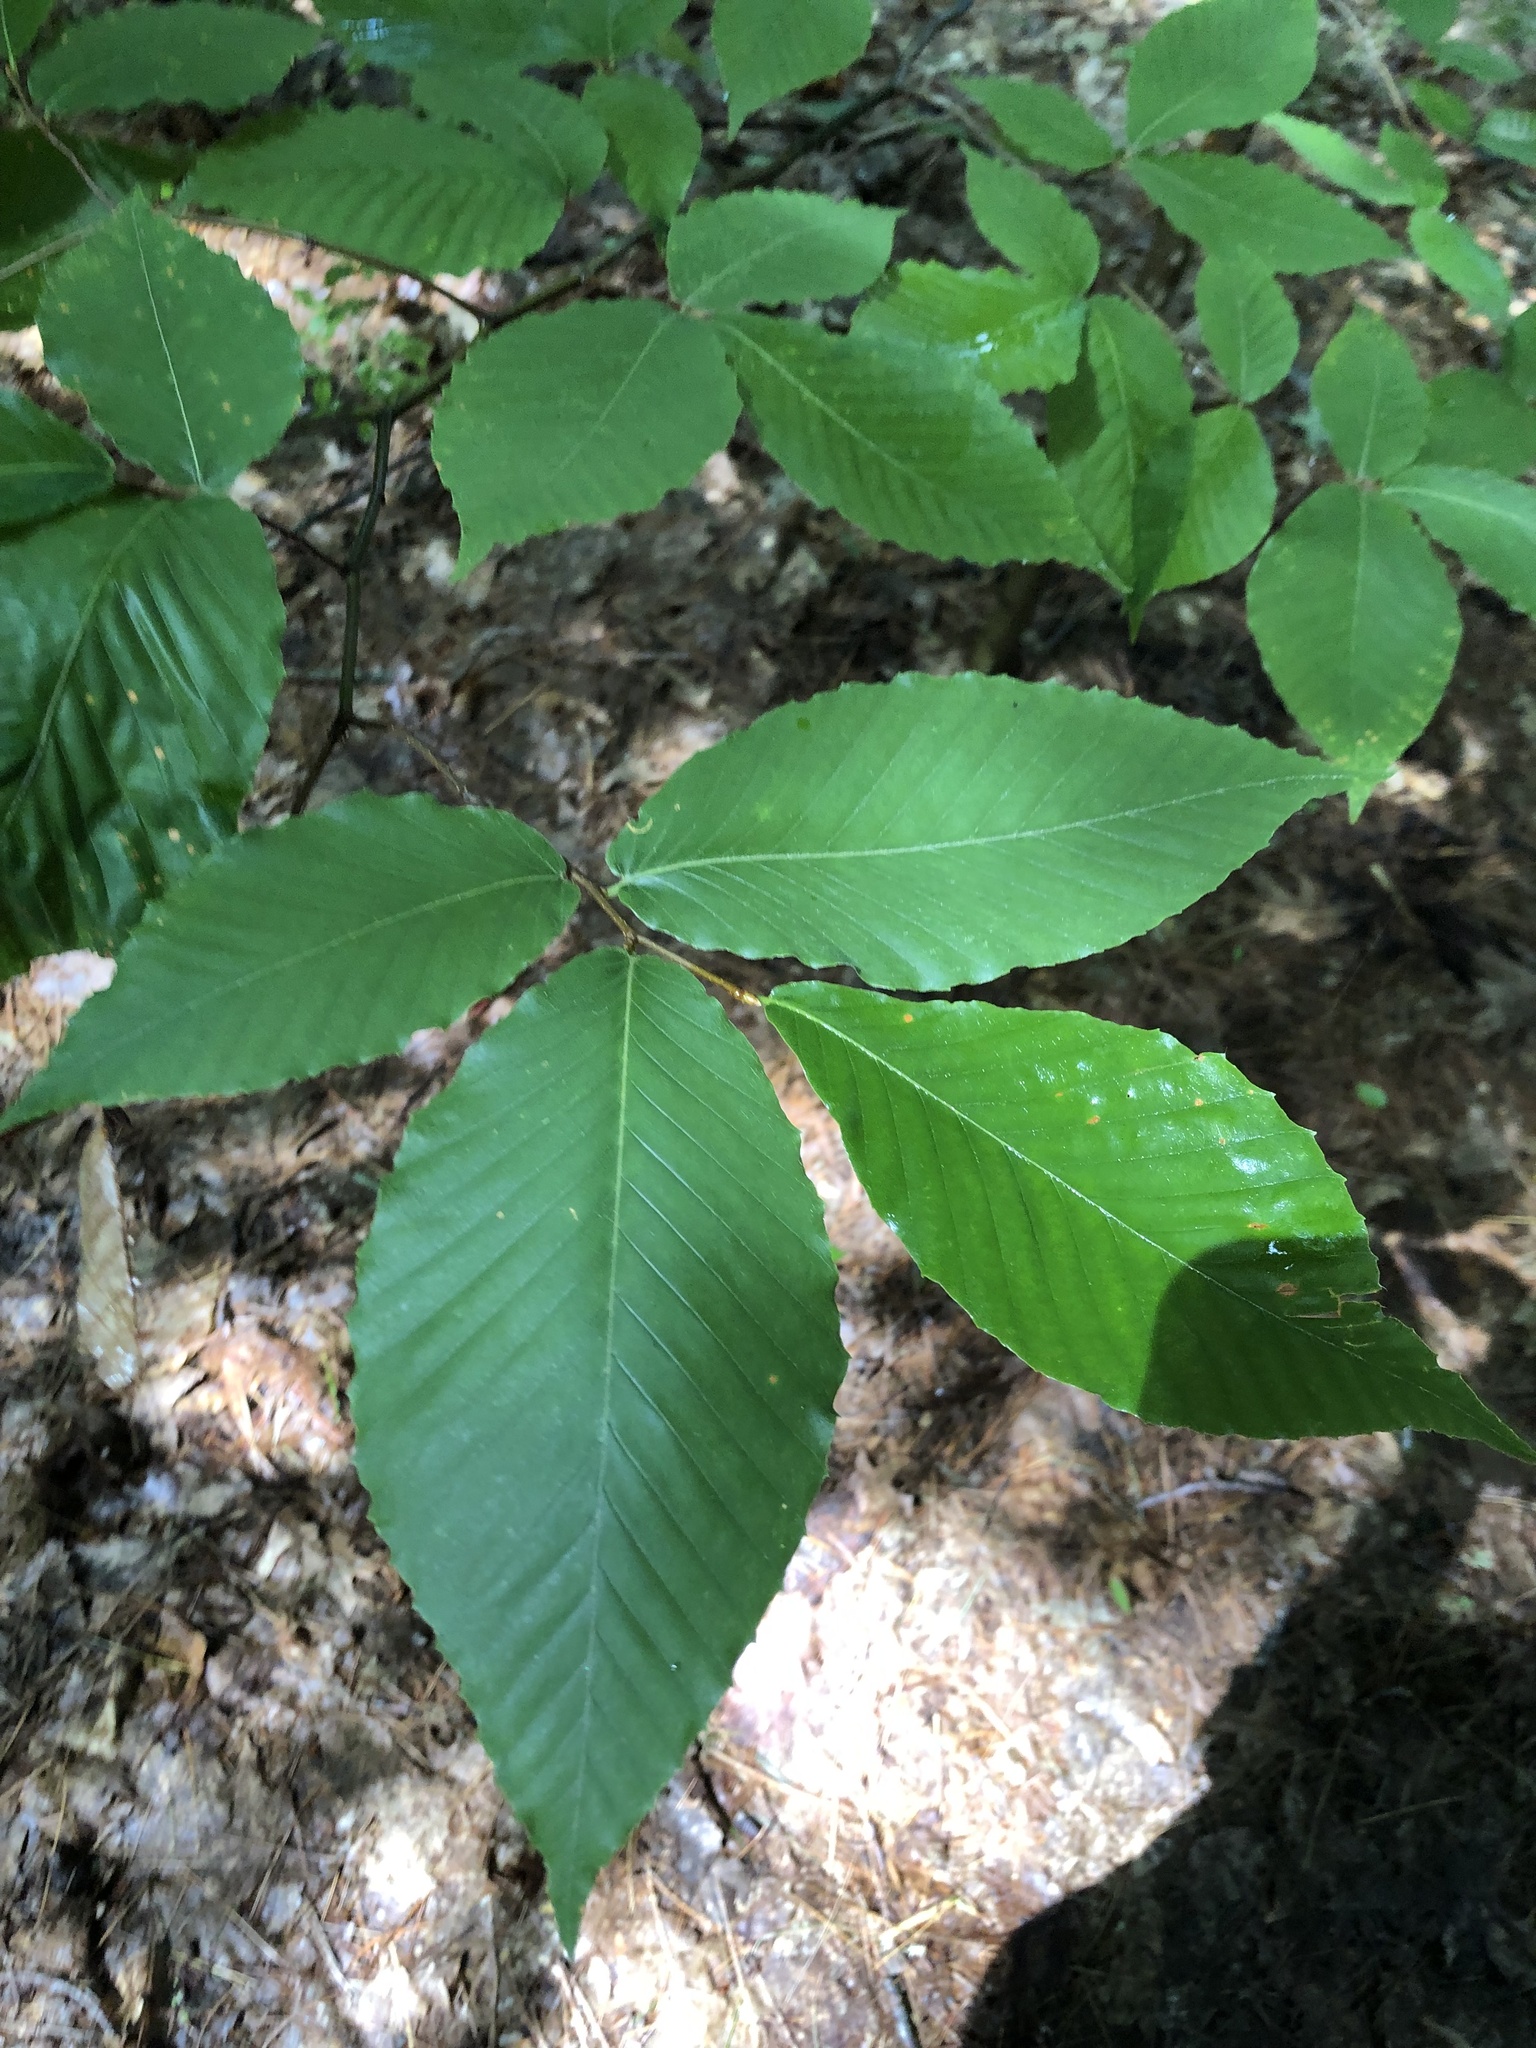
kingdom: Plantae
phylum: Tracheophyta
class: Magnoliopsida
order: Fagales
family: Fagaceae
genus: Fagus
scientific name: Fagus grandifolia
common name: American beech
